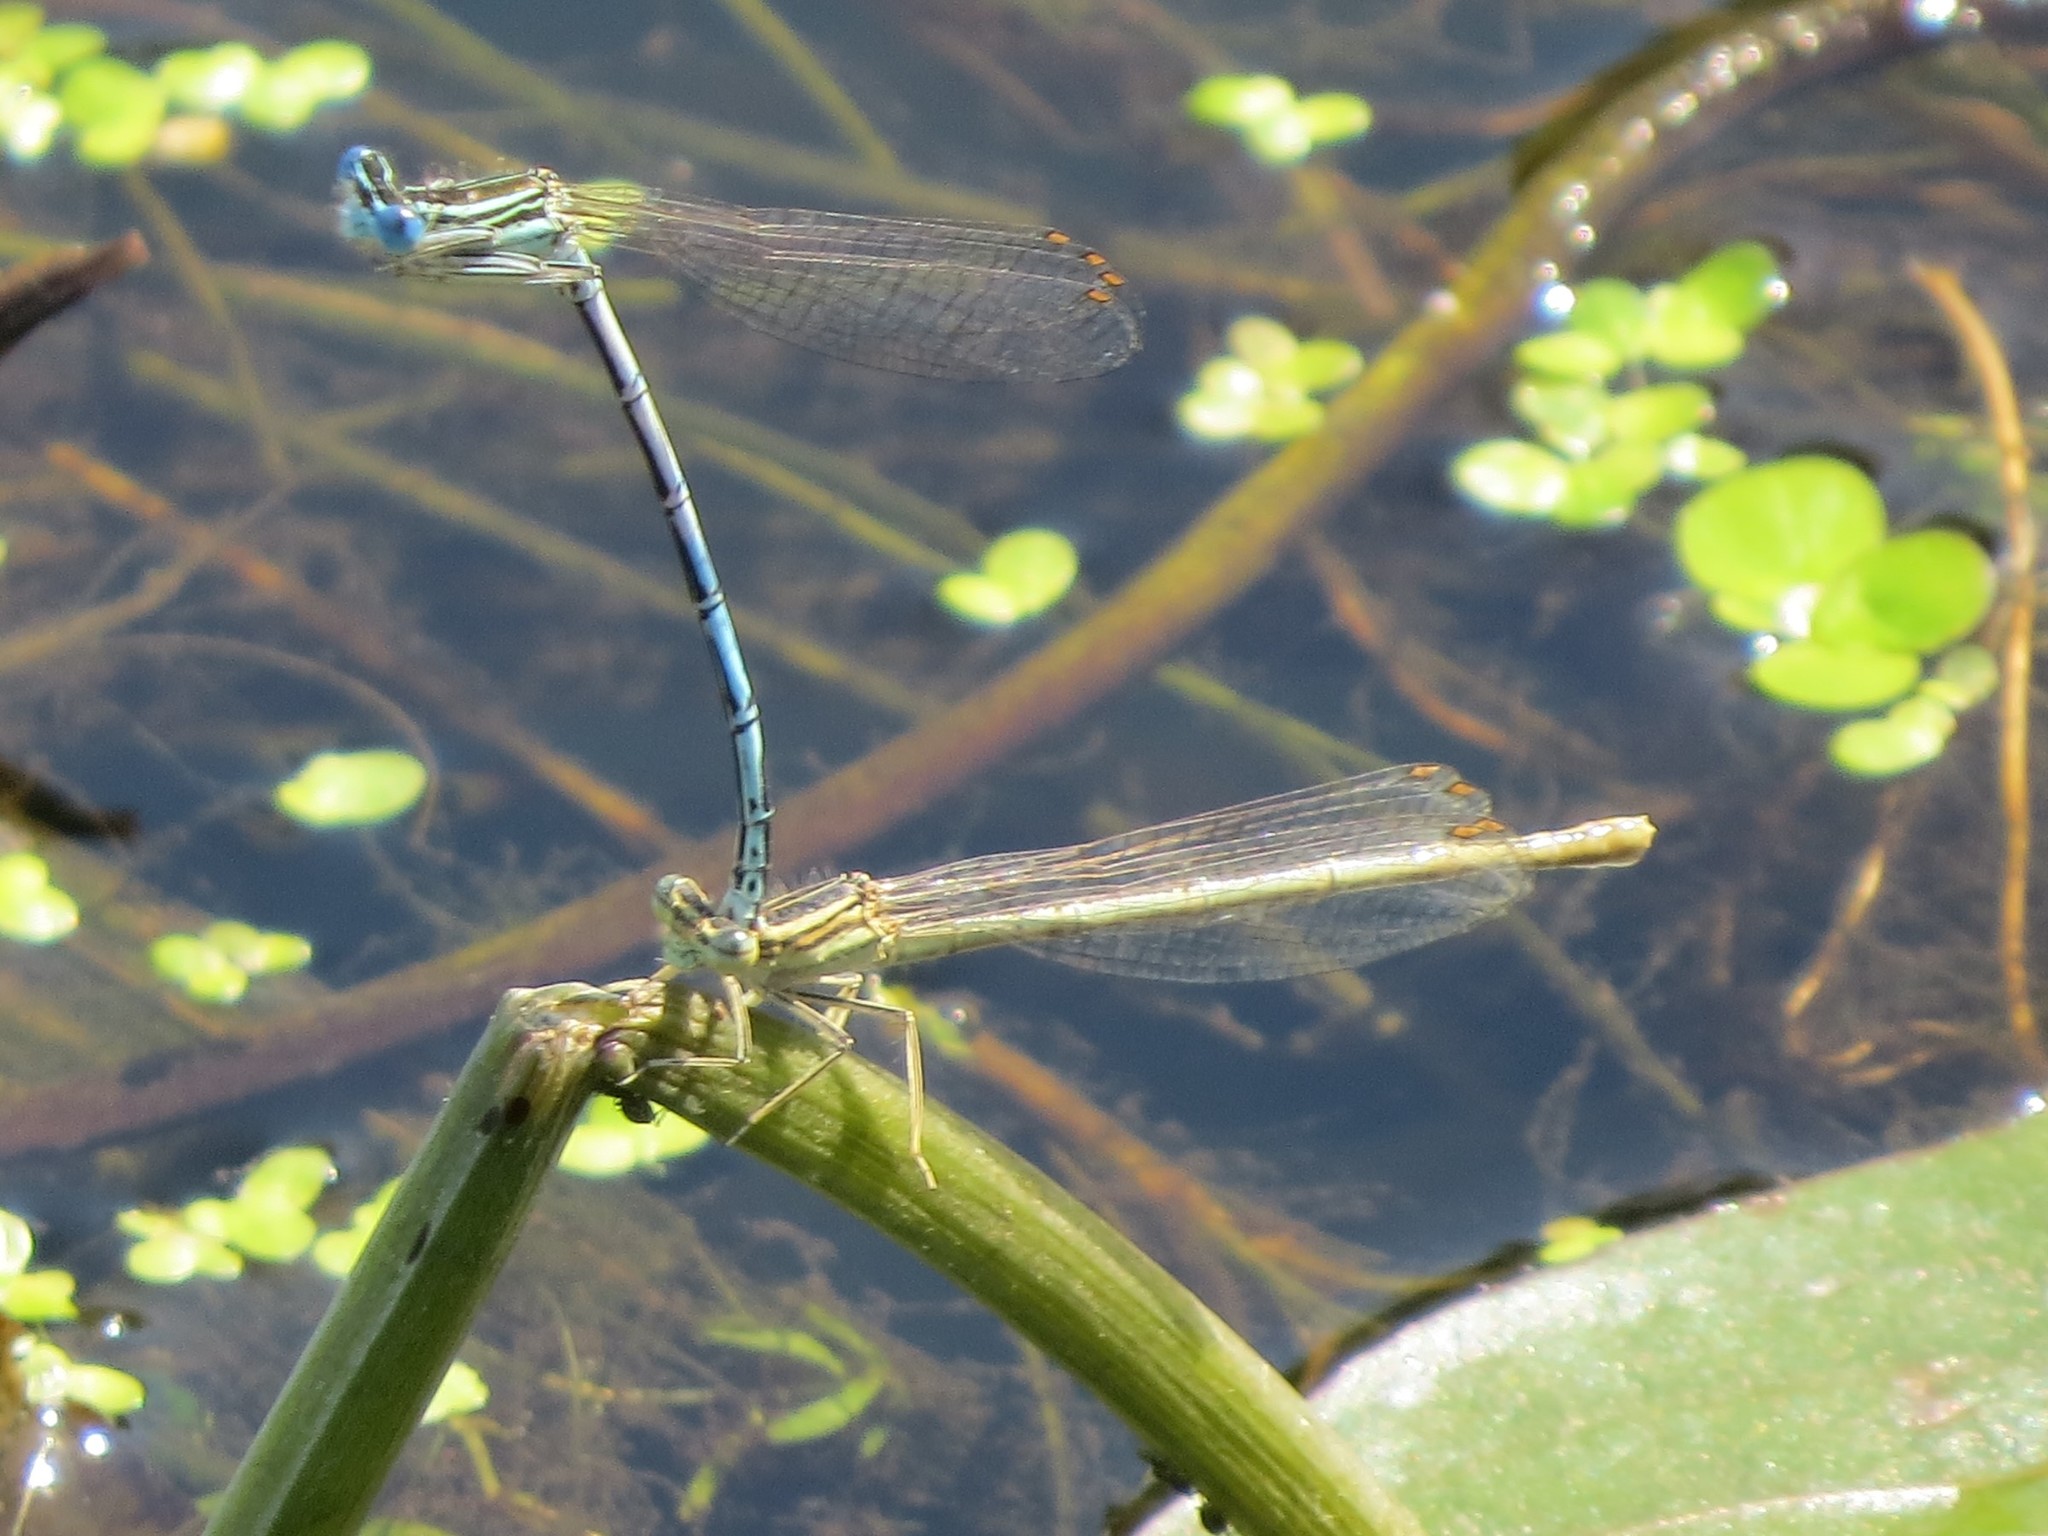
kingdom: Animalia
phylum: Arthropoda
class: Insecta
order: Odonata
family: Platycnemididae
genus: Platycnemis
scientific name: Platycnemis pennipes
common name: White-legged damselfly
